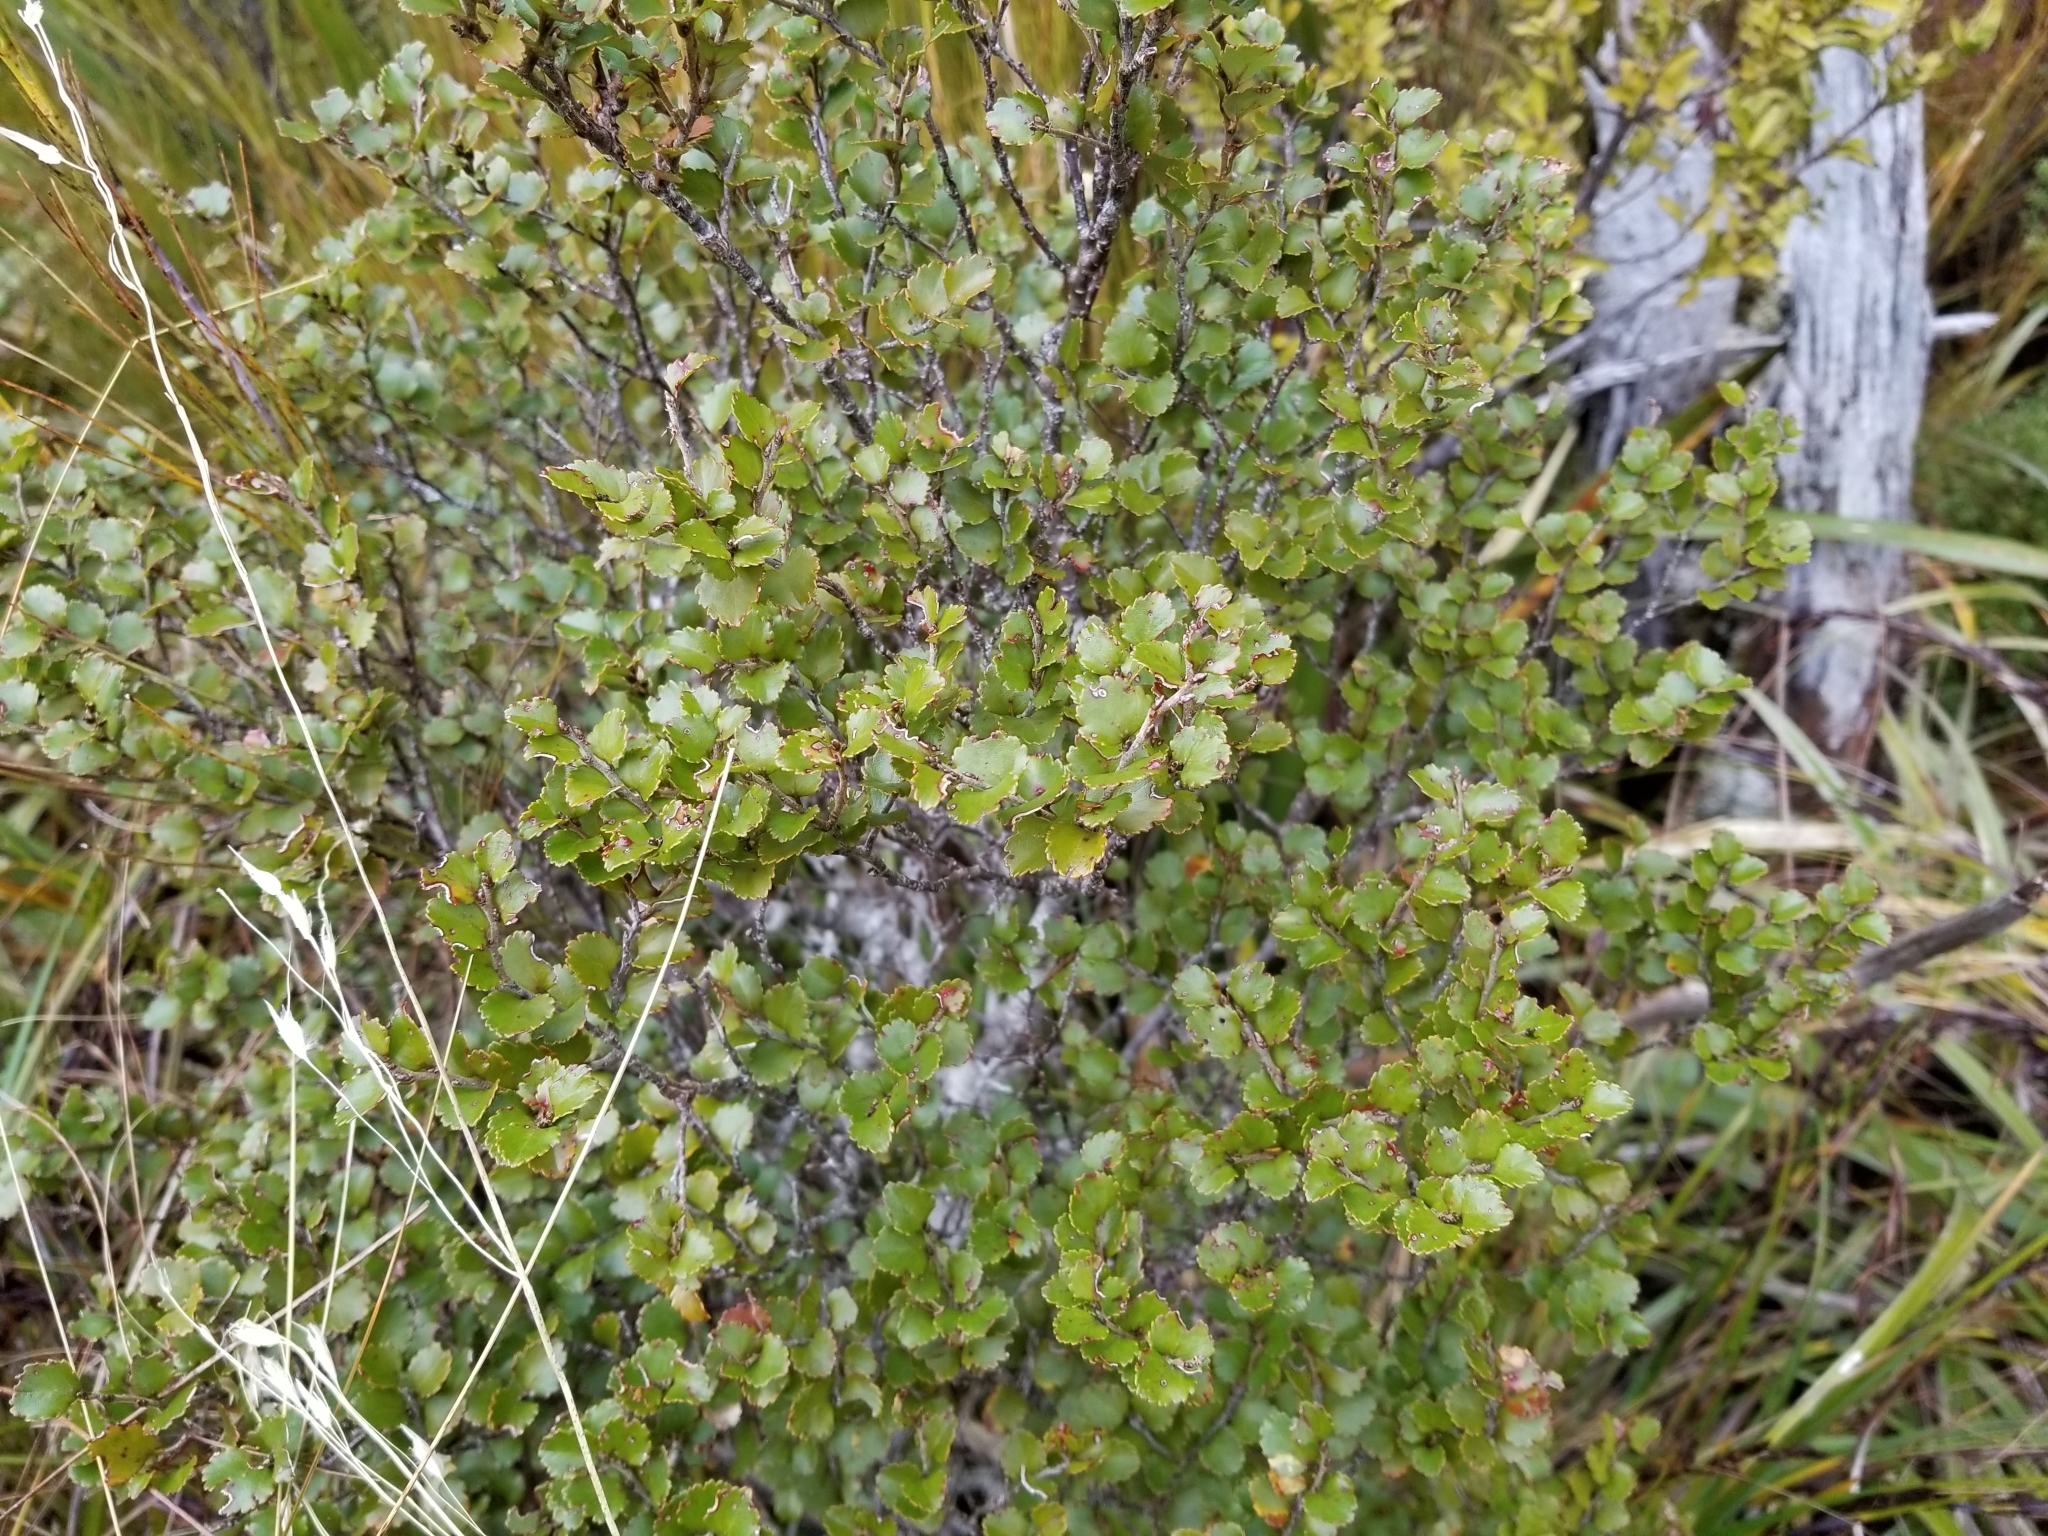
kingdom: Plantae
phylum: Tracheophyta
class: Magnoliopsida
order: Fagales
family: Nothofagaceae
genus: Nothofagus
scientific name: Nothofagus menziesii
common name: Silver beech
